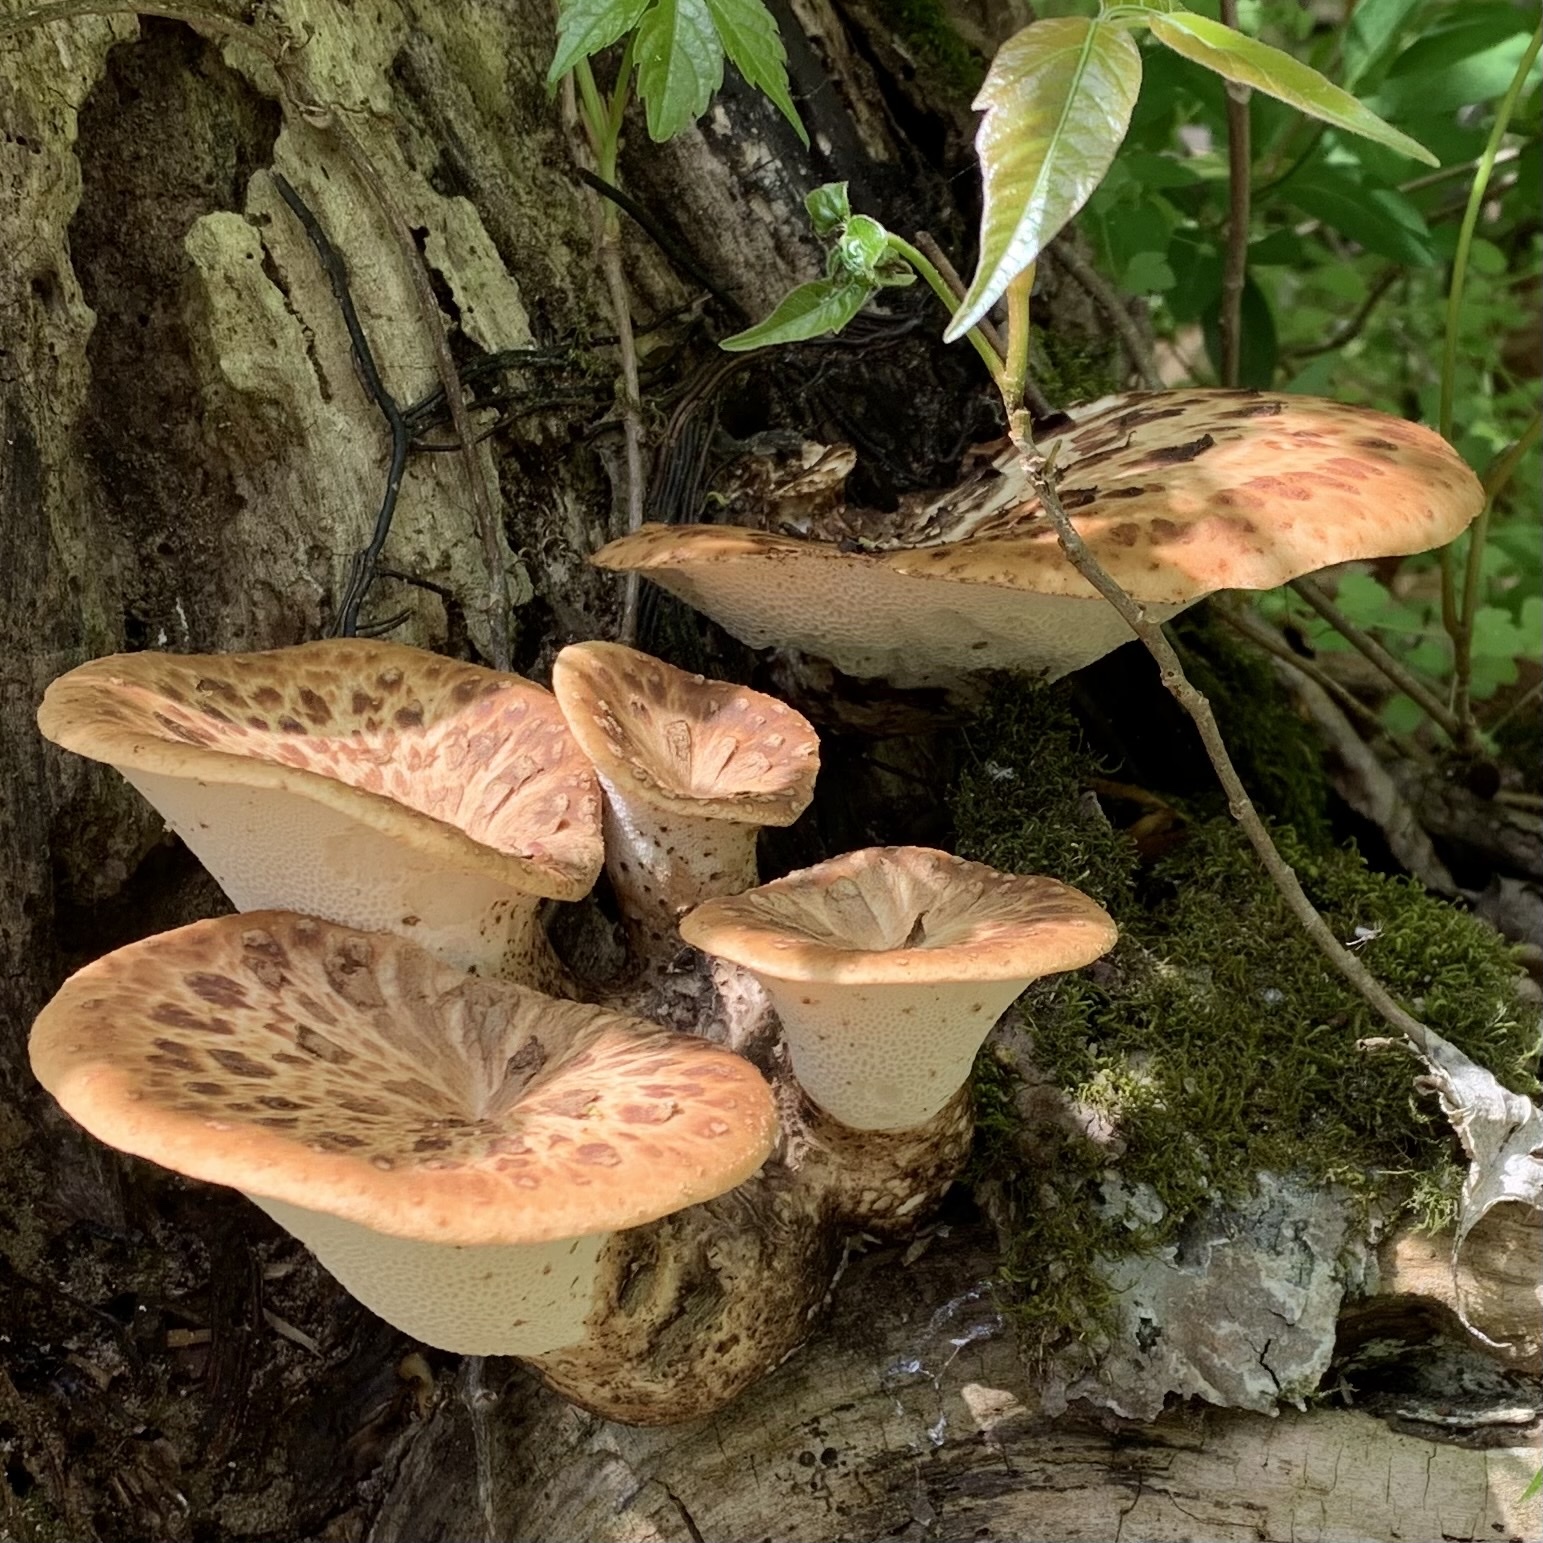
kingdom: Fungi
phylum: Basidiomycota
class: Agaricomycetes
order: Polyporales
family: Polyporaceae
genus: Cerioporus
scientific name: Cerioporus squamosus
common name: Dryad's saddle
